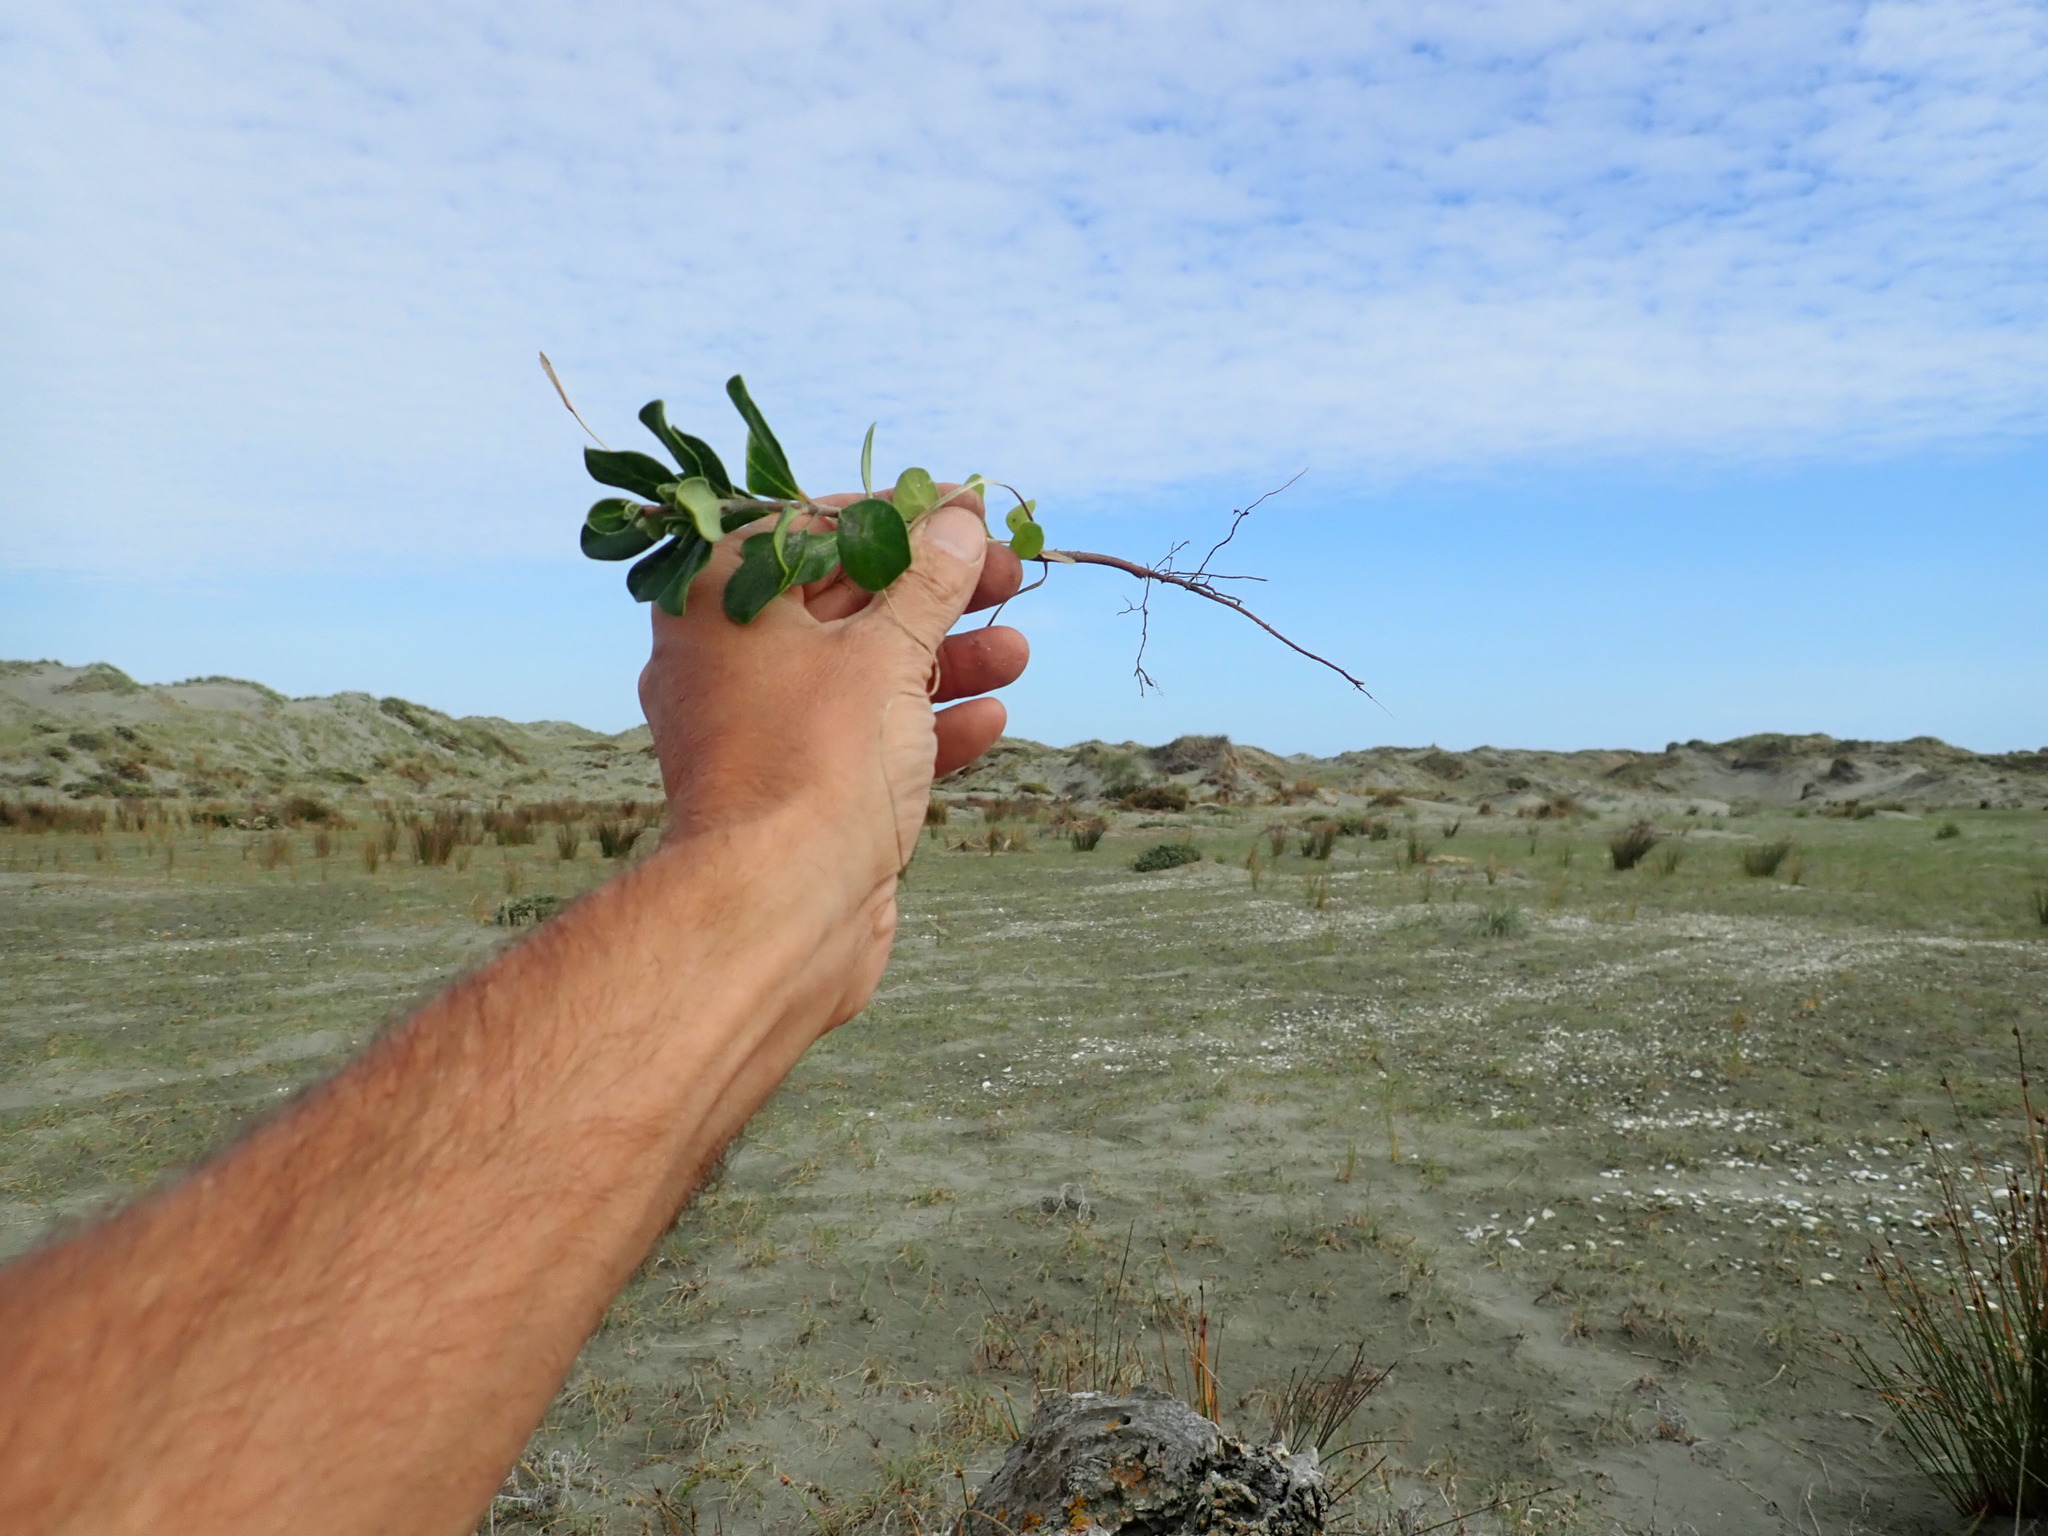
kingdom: Plantae
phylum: Tracheophyta
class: Magnoliopsida
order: Apiales
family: Pittosporaceae
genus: Pittosporum
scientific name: Pittosporum crassifolium
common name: Karo
